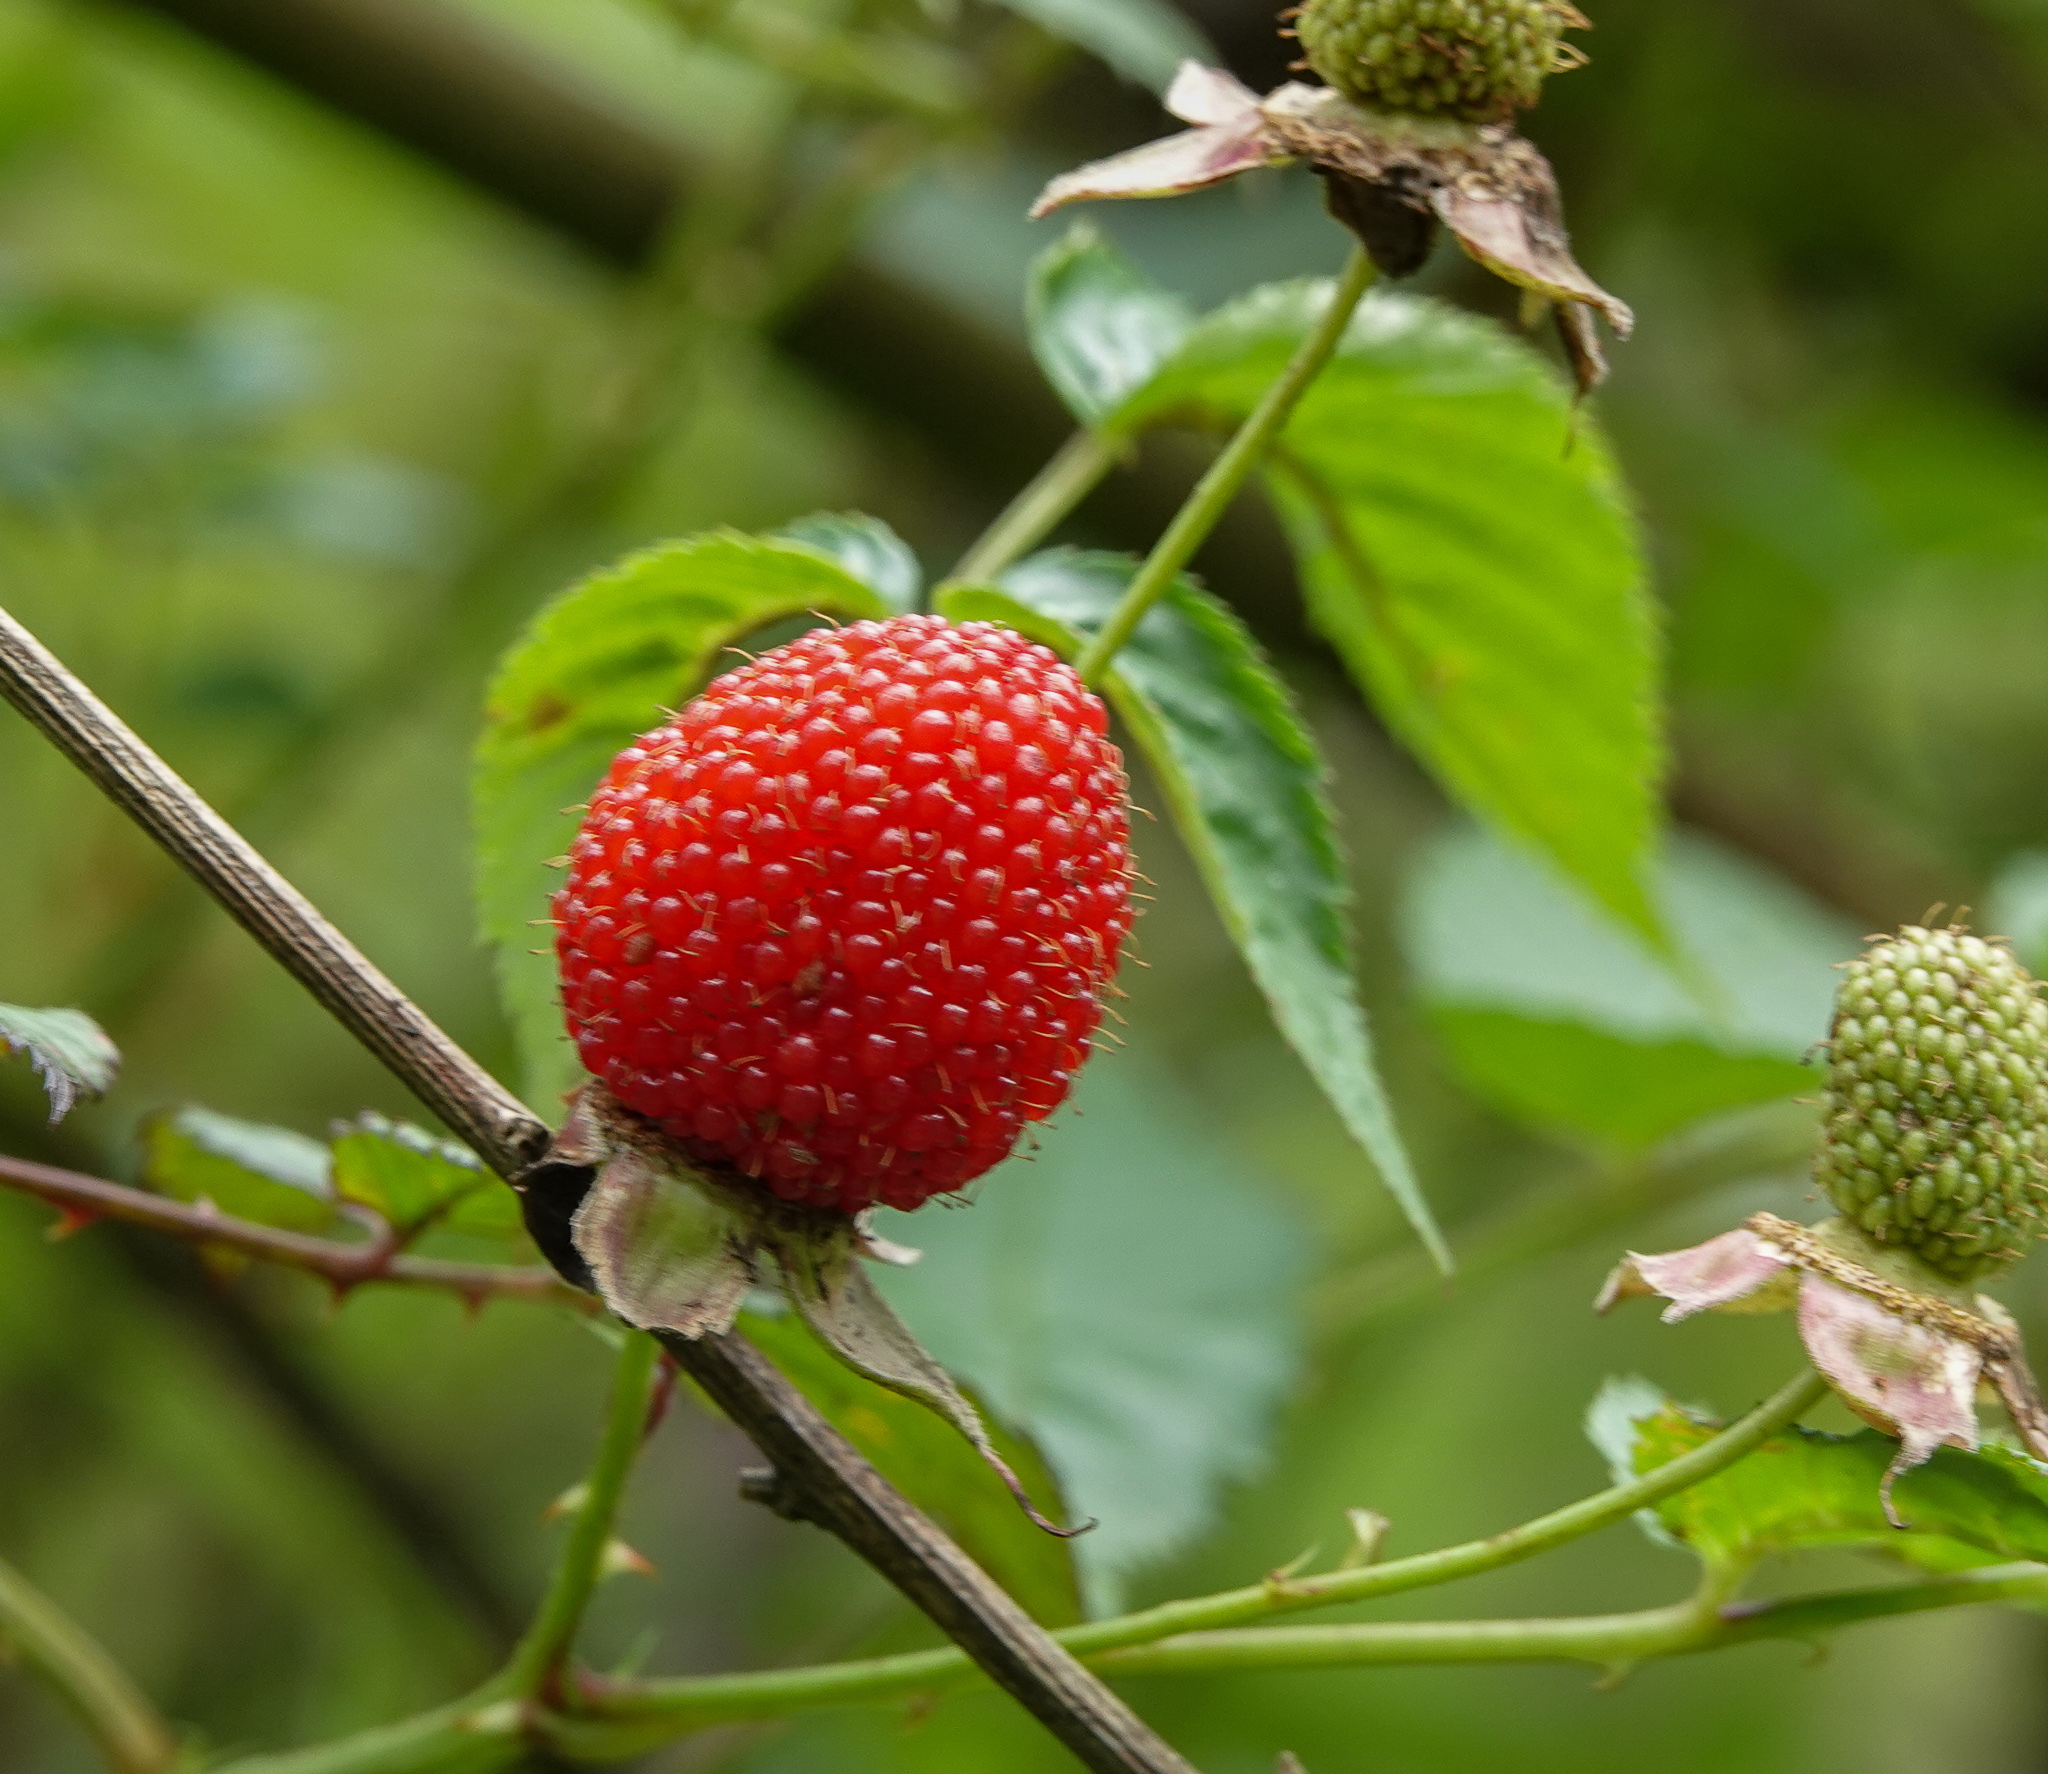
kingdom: Plantae
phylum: Tracheophyta
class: Magnoliopsida
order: Rosales
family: Rosaceae
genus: Rubus
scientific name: Rubus rosifolius
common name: Roseleaf raspberry
